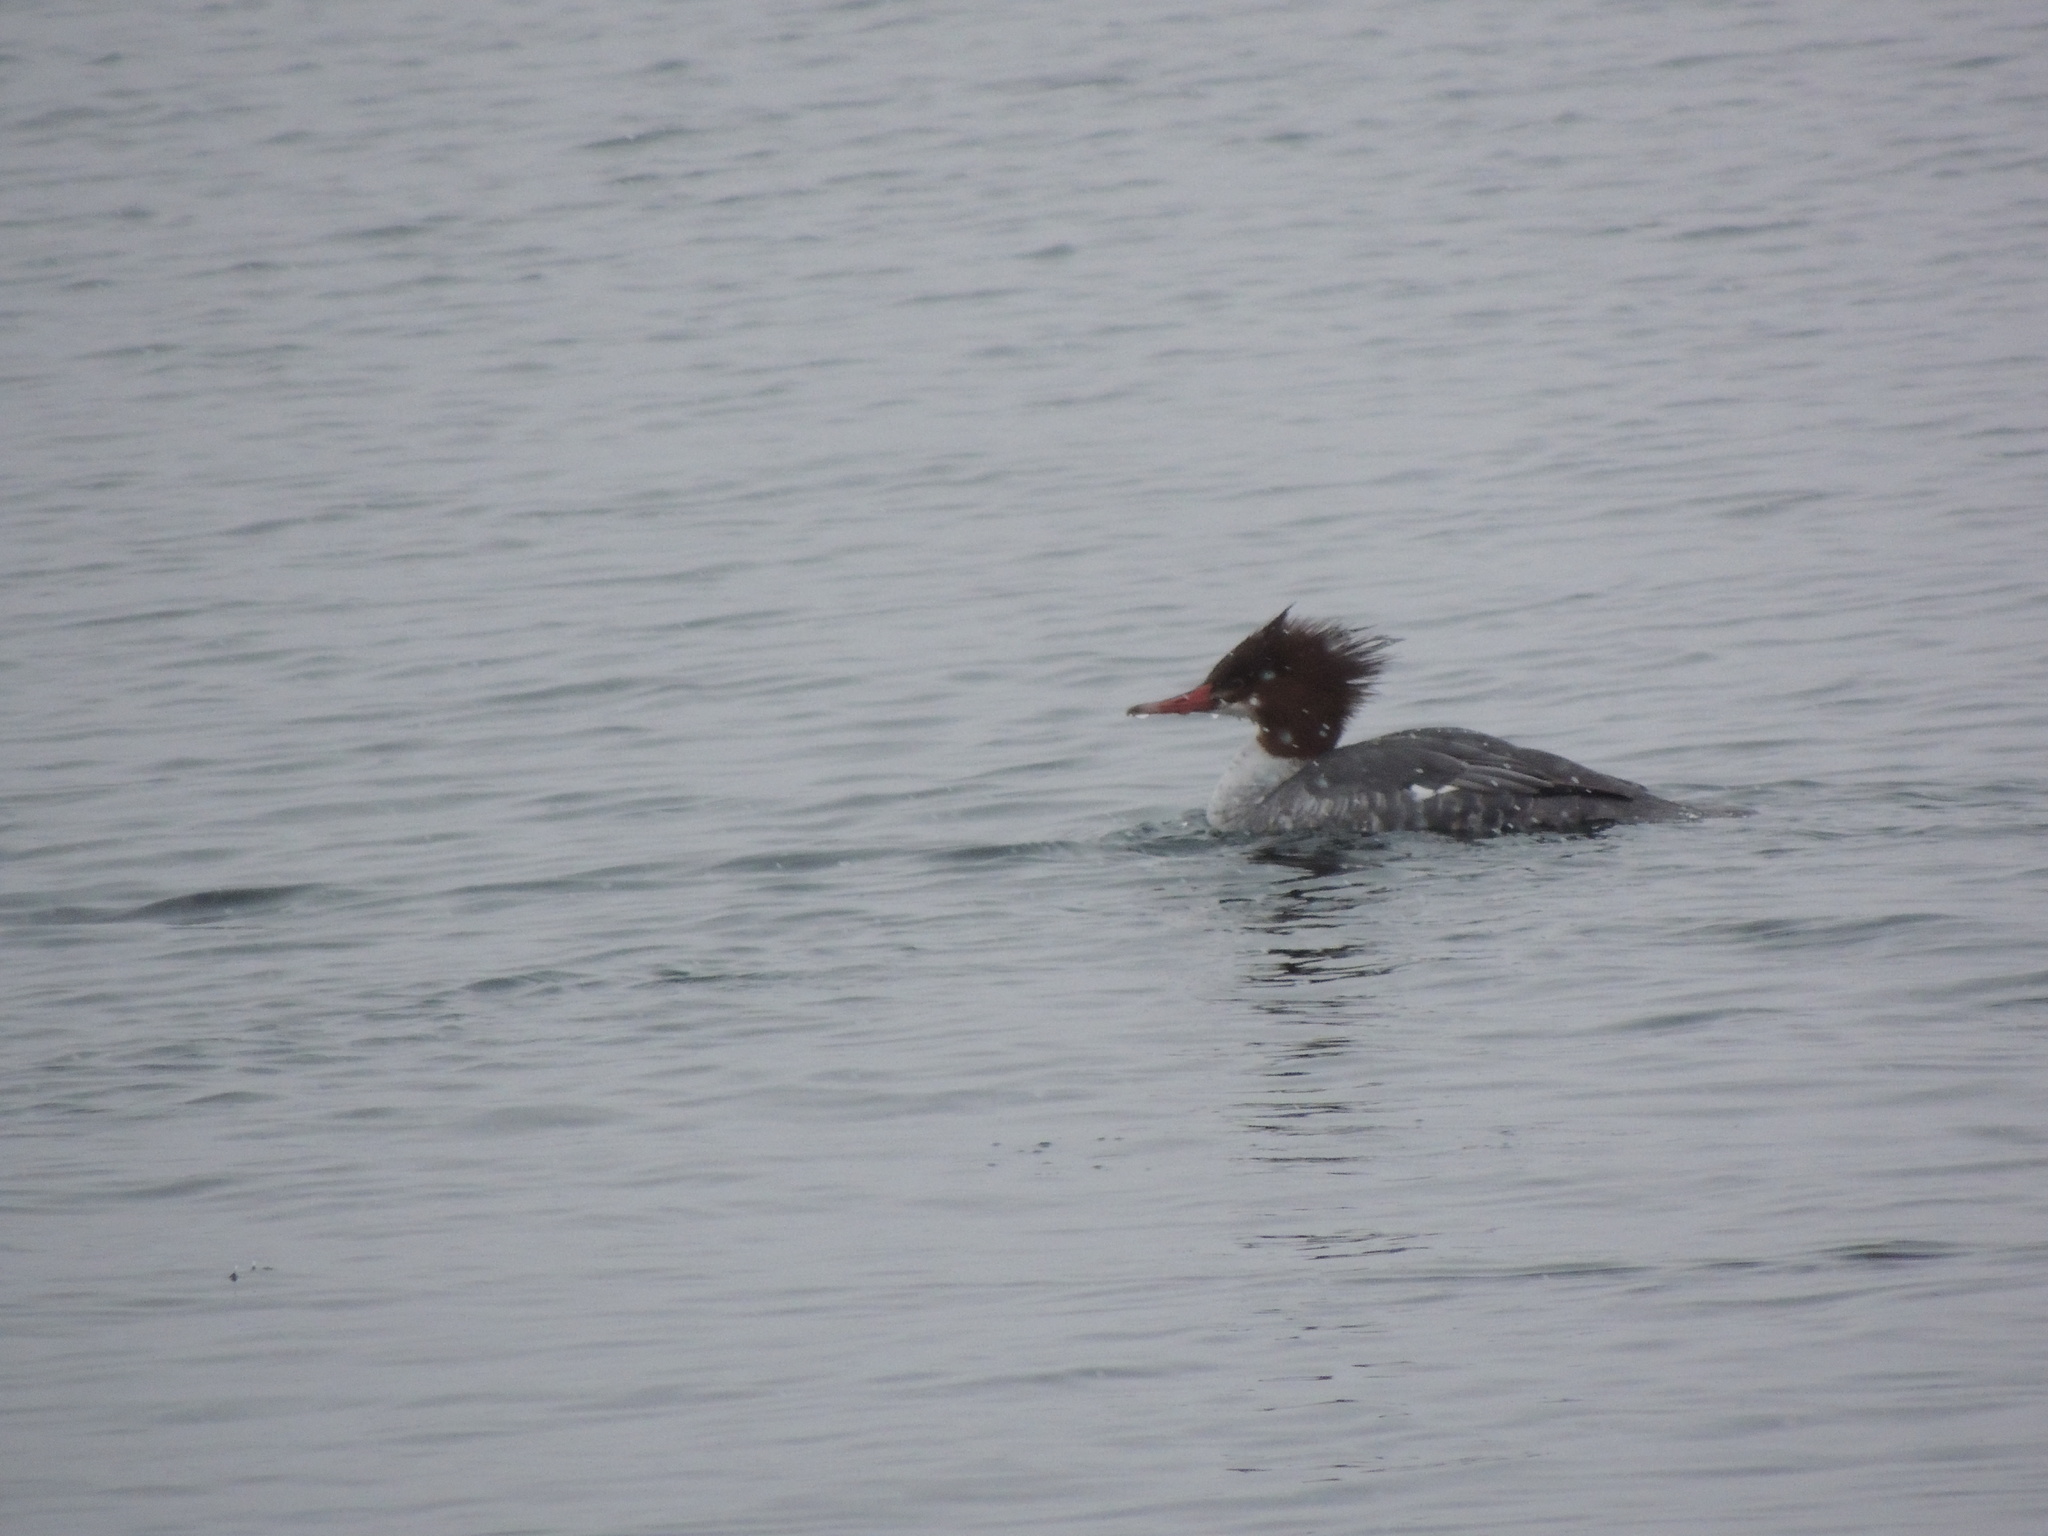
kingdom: Animalia
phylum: Chordata
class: Aves
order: Anseriformes
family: Anatidae
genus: Mergus
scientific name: Mergus merganser
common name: Common merganser
